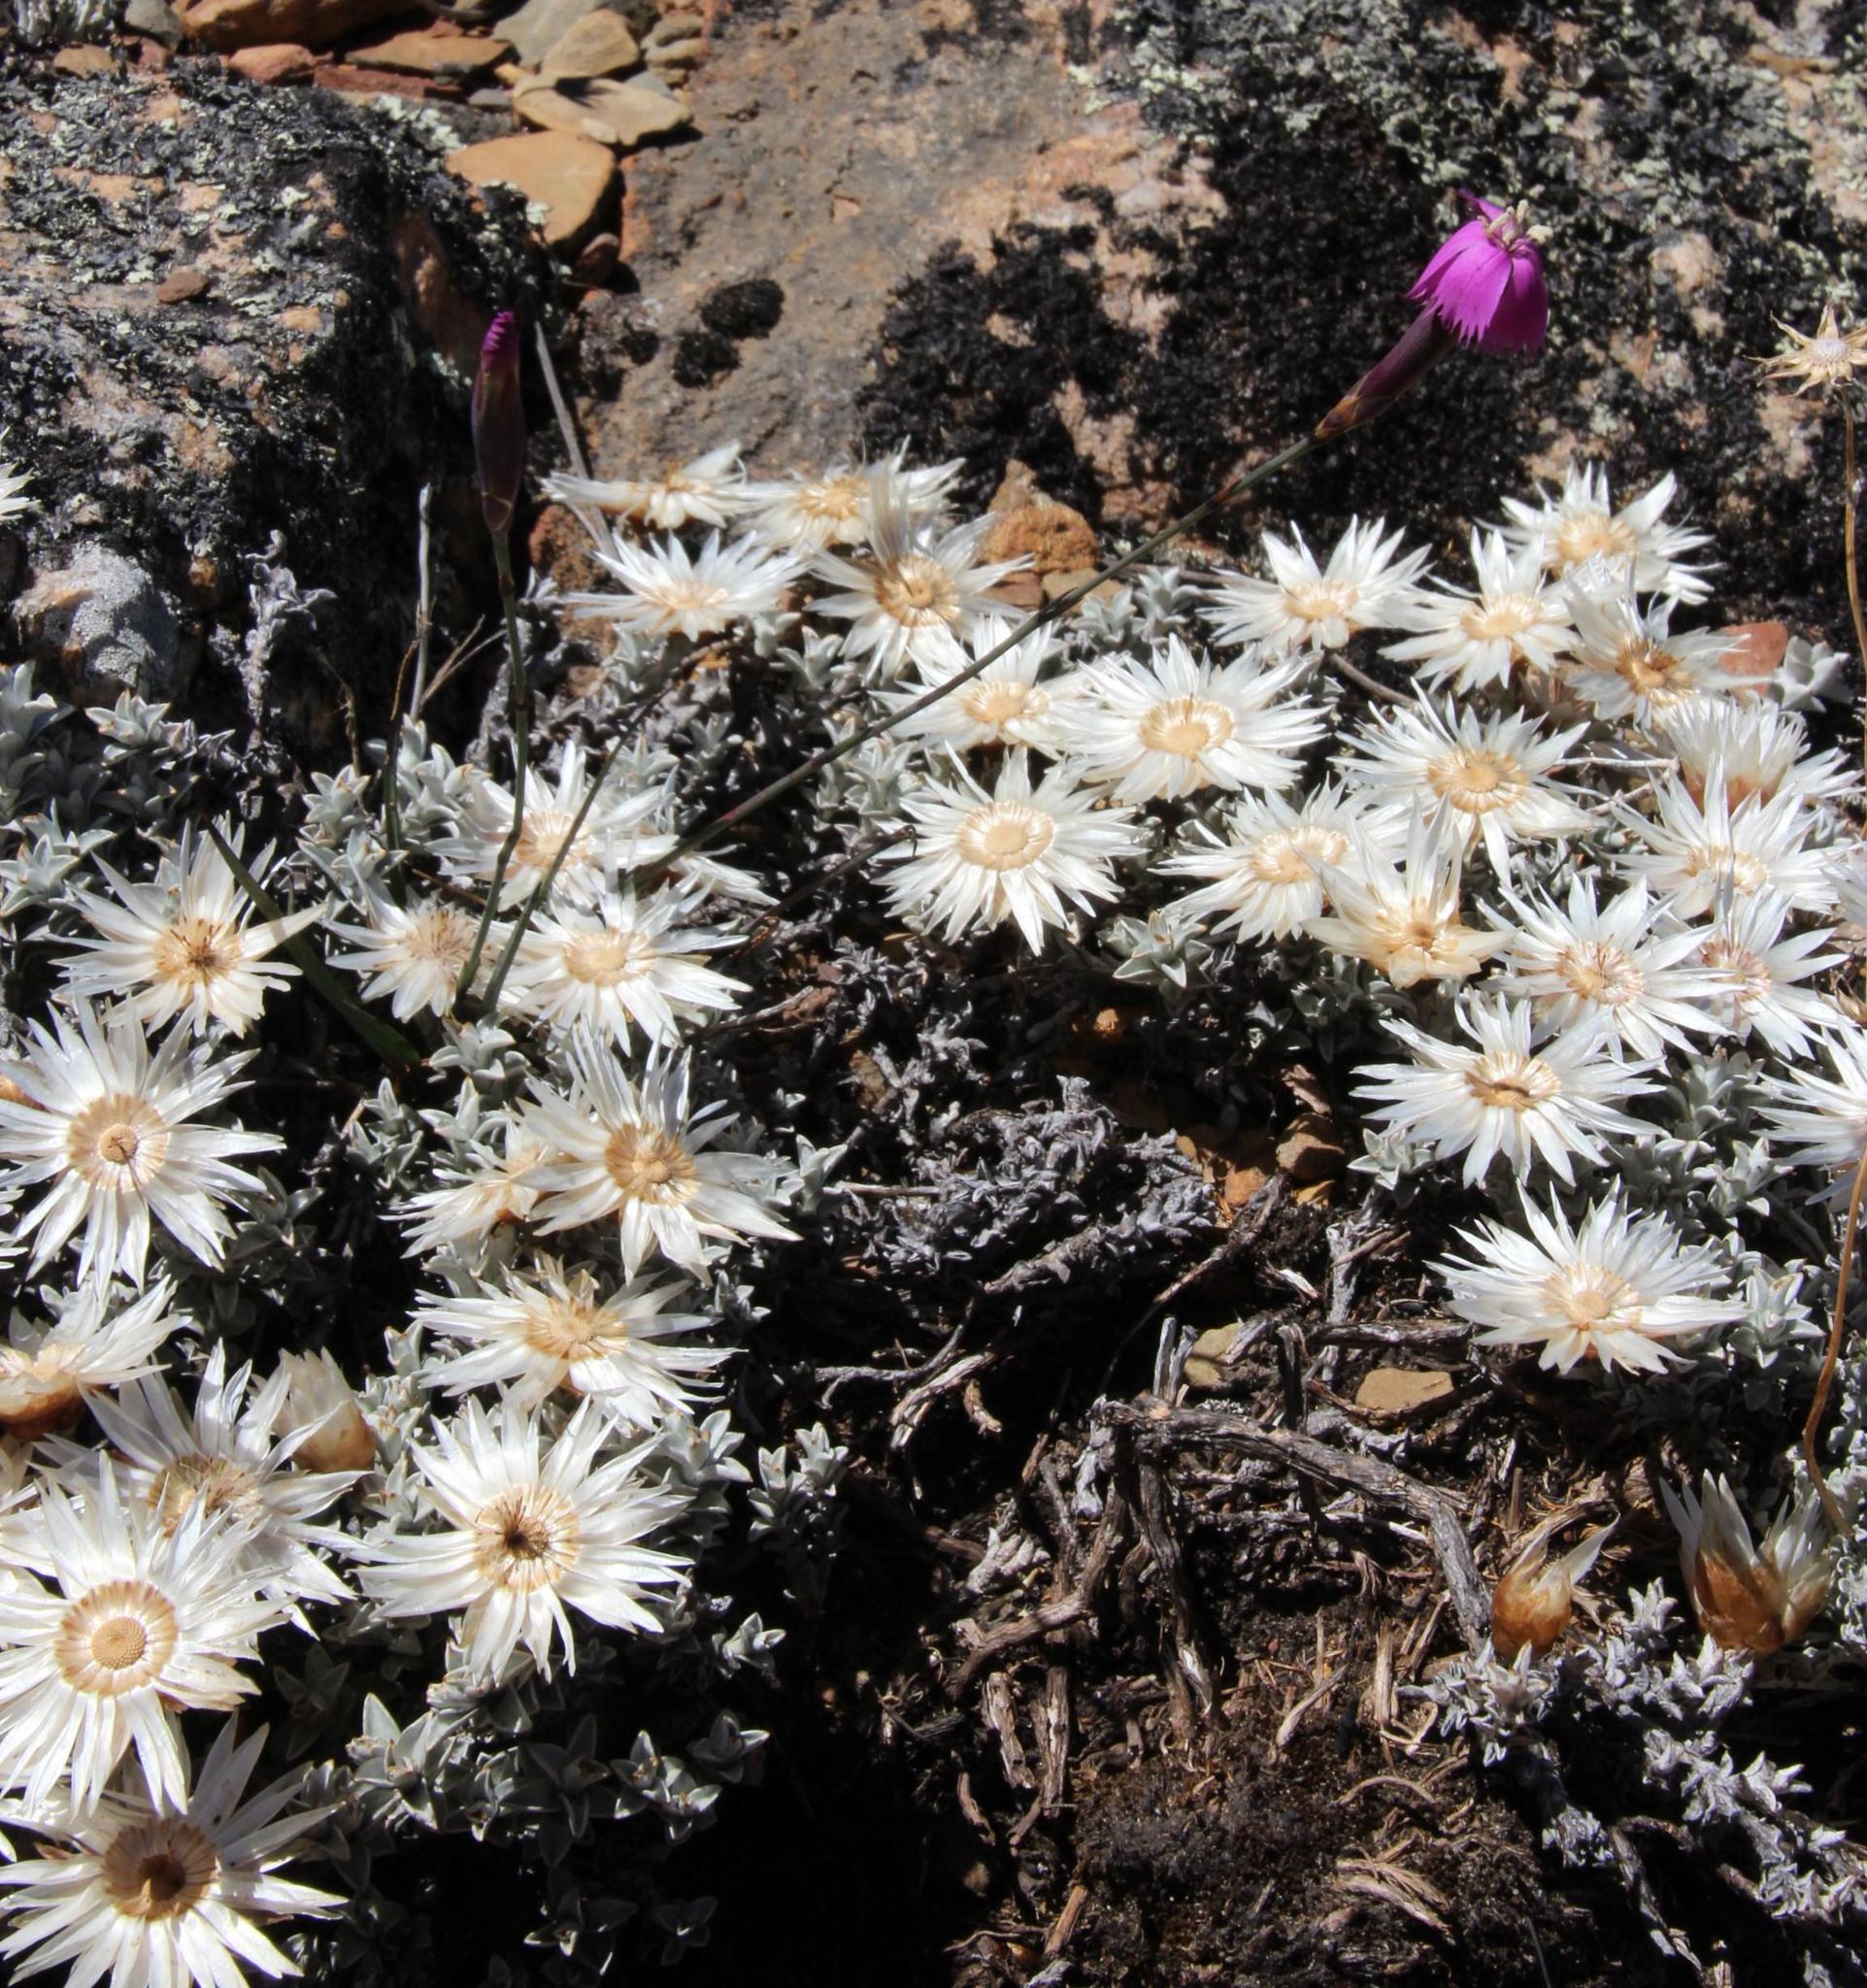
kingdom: Plantae
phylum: Tracheophyta
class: Magnoliopsida
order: Asterales
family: Asteraceae
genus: Helichrysum
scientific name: Helichrysum stoloniferum
